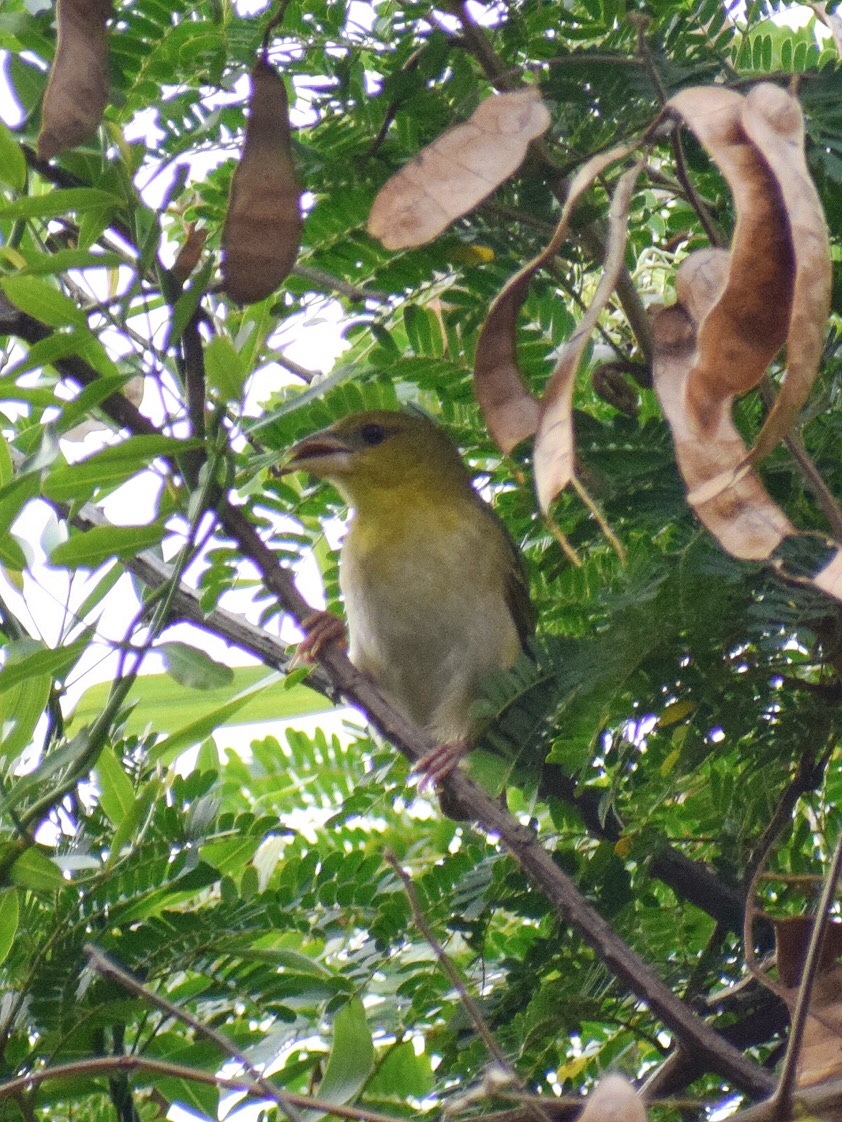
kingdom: Animalia
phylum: Chordata
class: Aves
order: Passeriformes
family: Ploceidae
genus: Ploceus
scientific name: Ploceus cucullatus
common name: Village weaver
